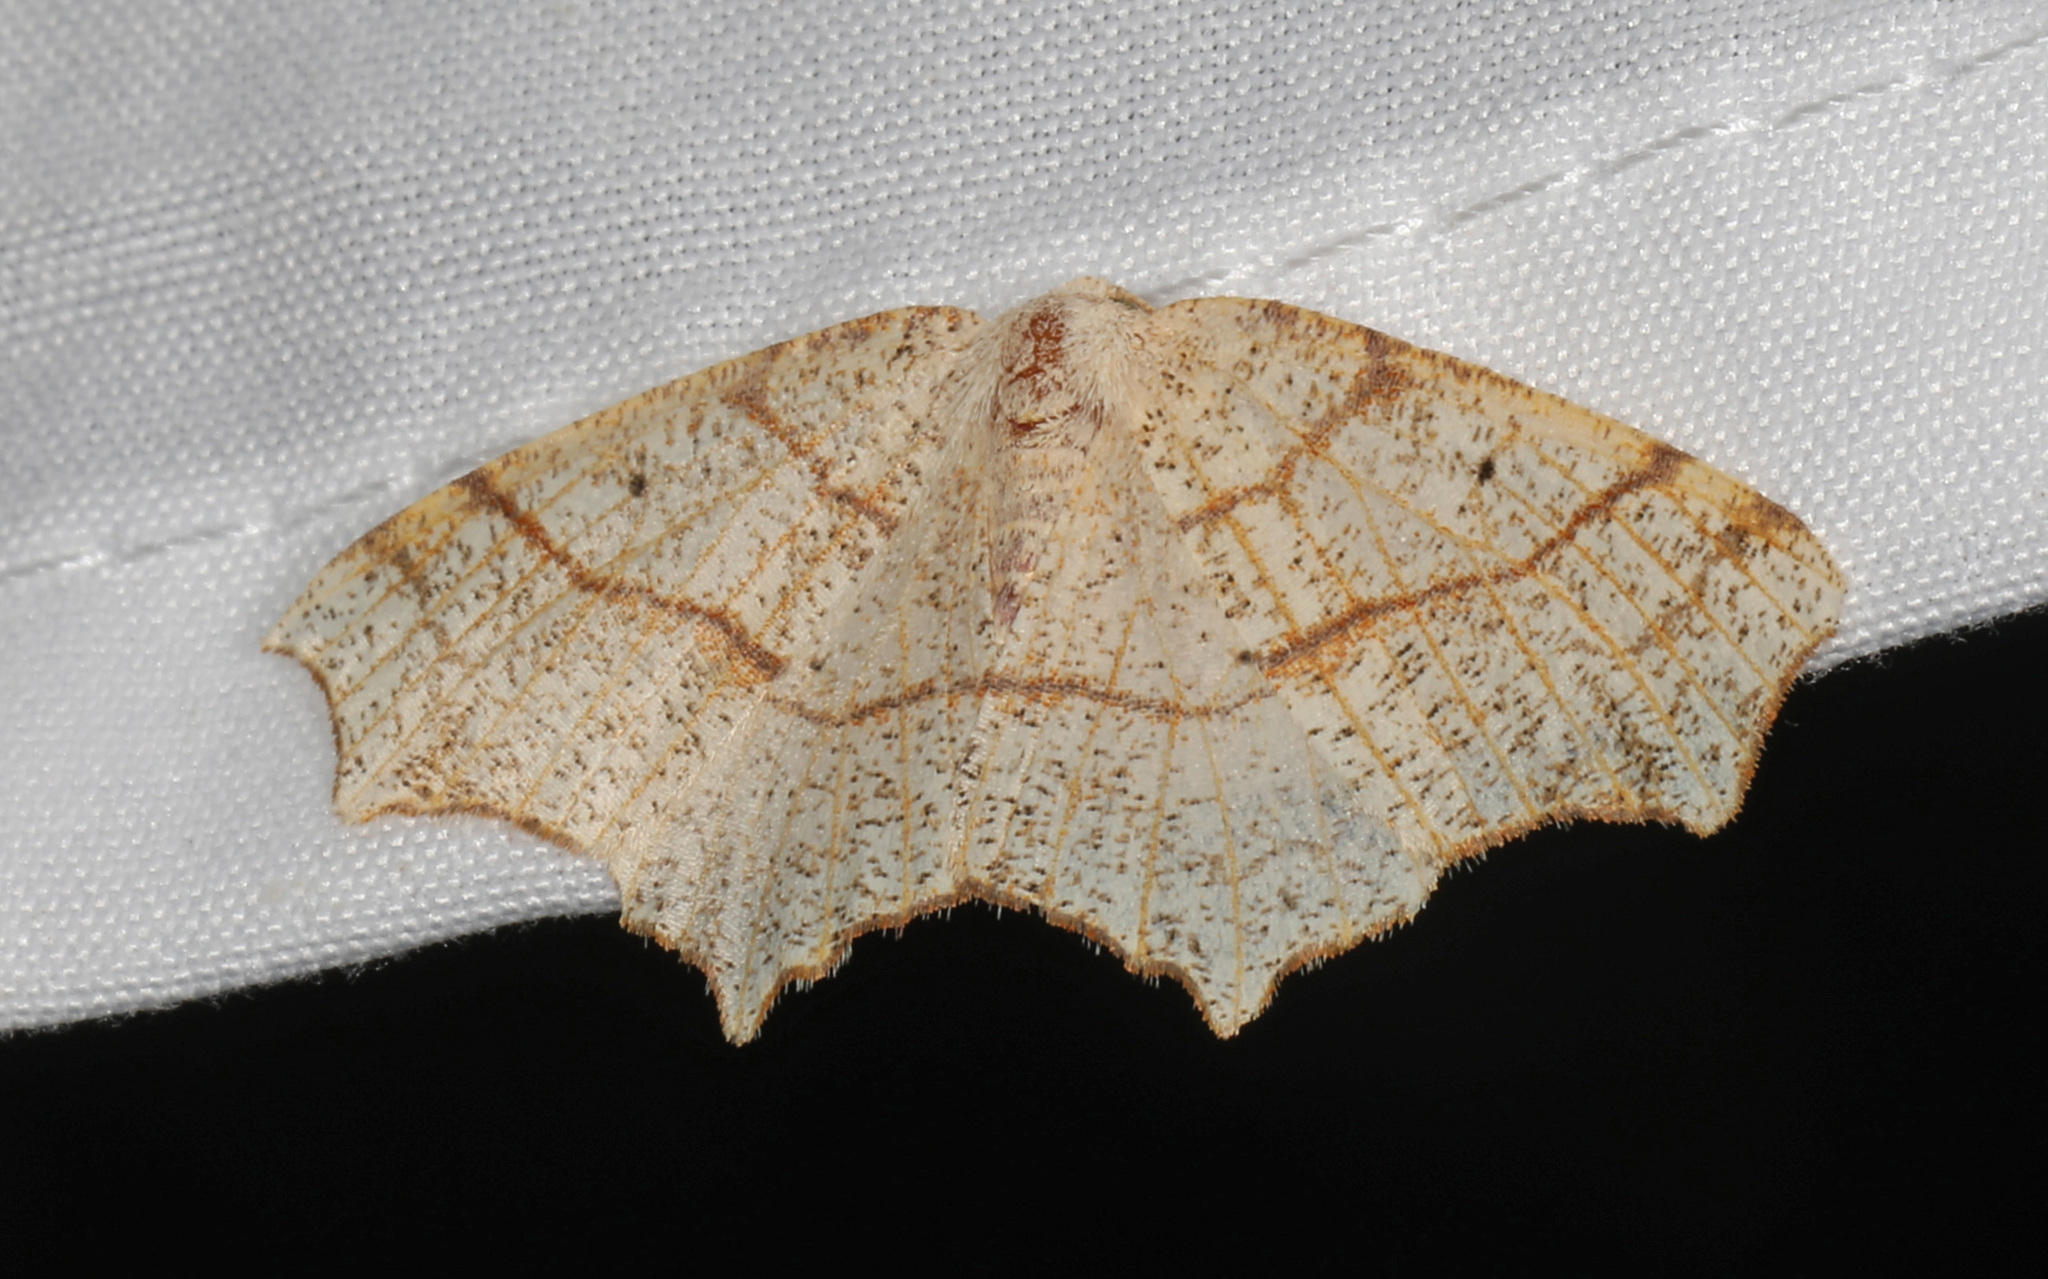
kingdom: Animalia
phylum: Arthropoda
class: Insecta
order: Lepidoptera
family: Geometridae
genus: Besma
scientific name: Besma quercivoraria
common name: Oak besma
